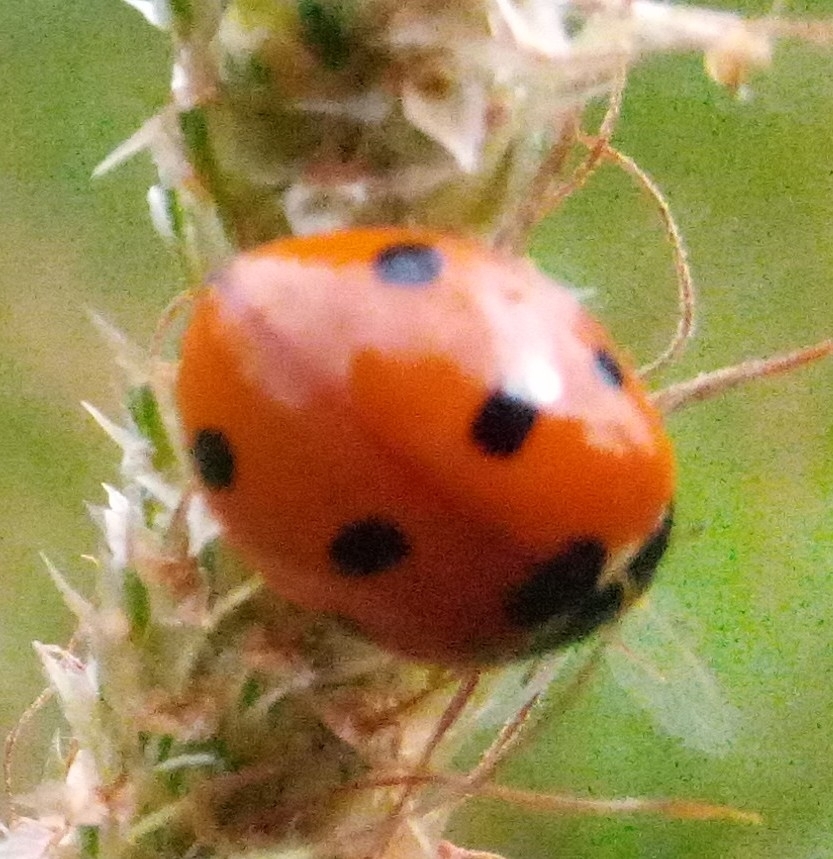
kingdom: Animalia
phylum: Arthropoda
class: Insecta
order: Coleoptera
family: Coccinellidae
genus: Coccinella
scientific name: Coccinella septempunctata
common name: Sevenspotted lady beetle
